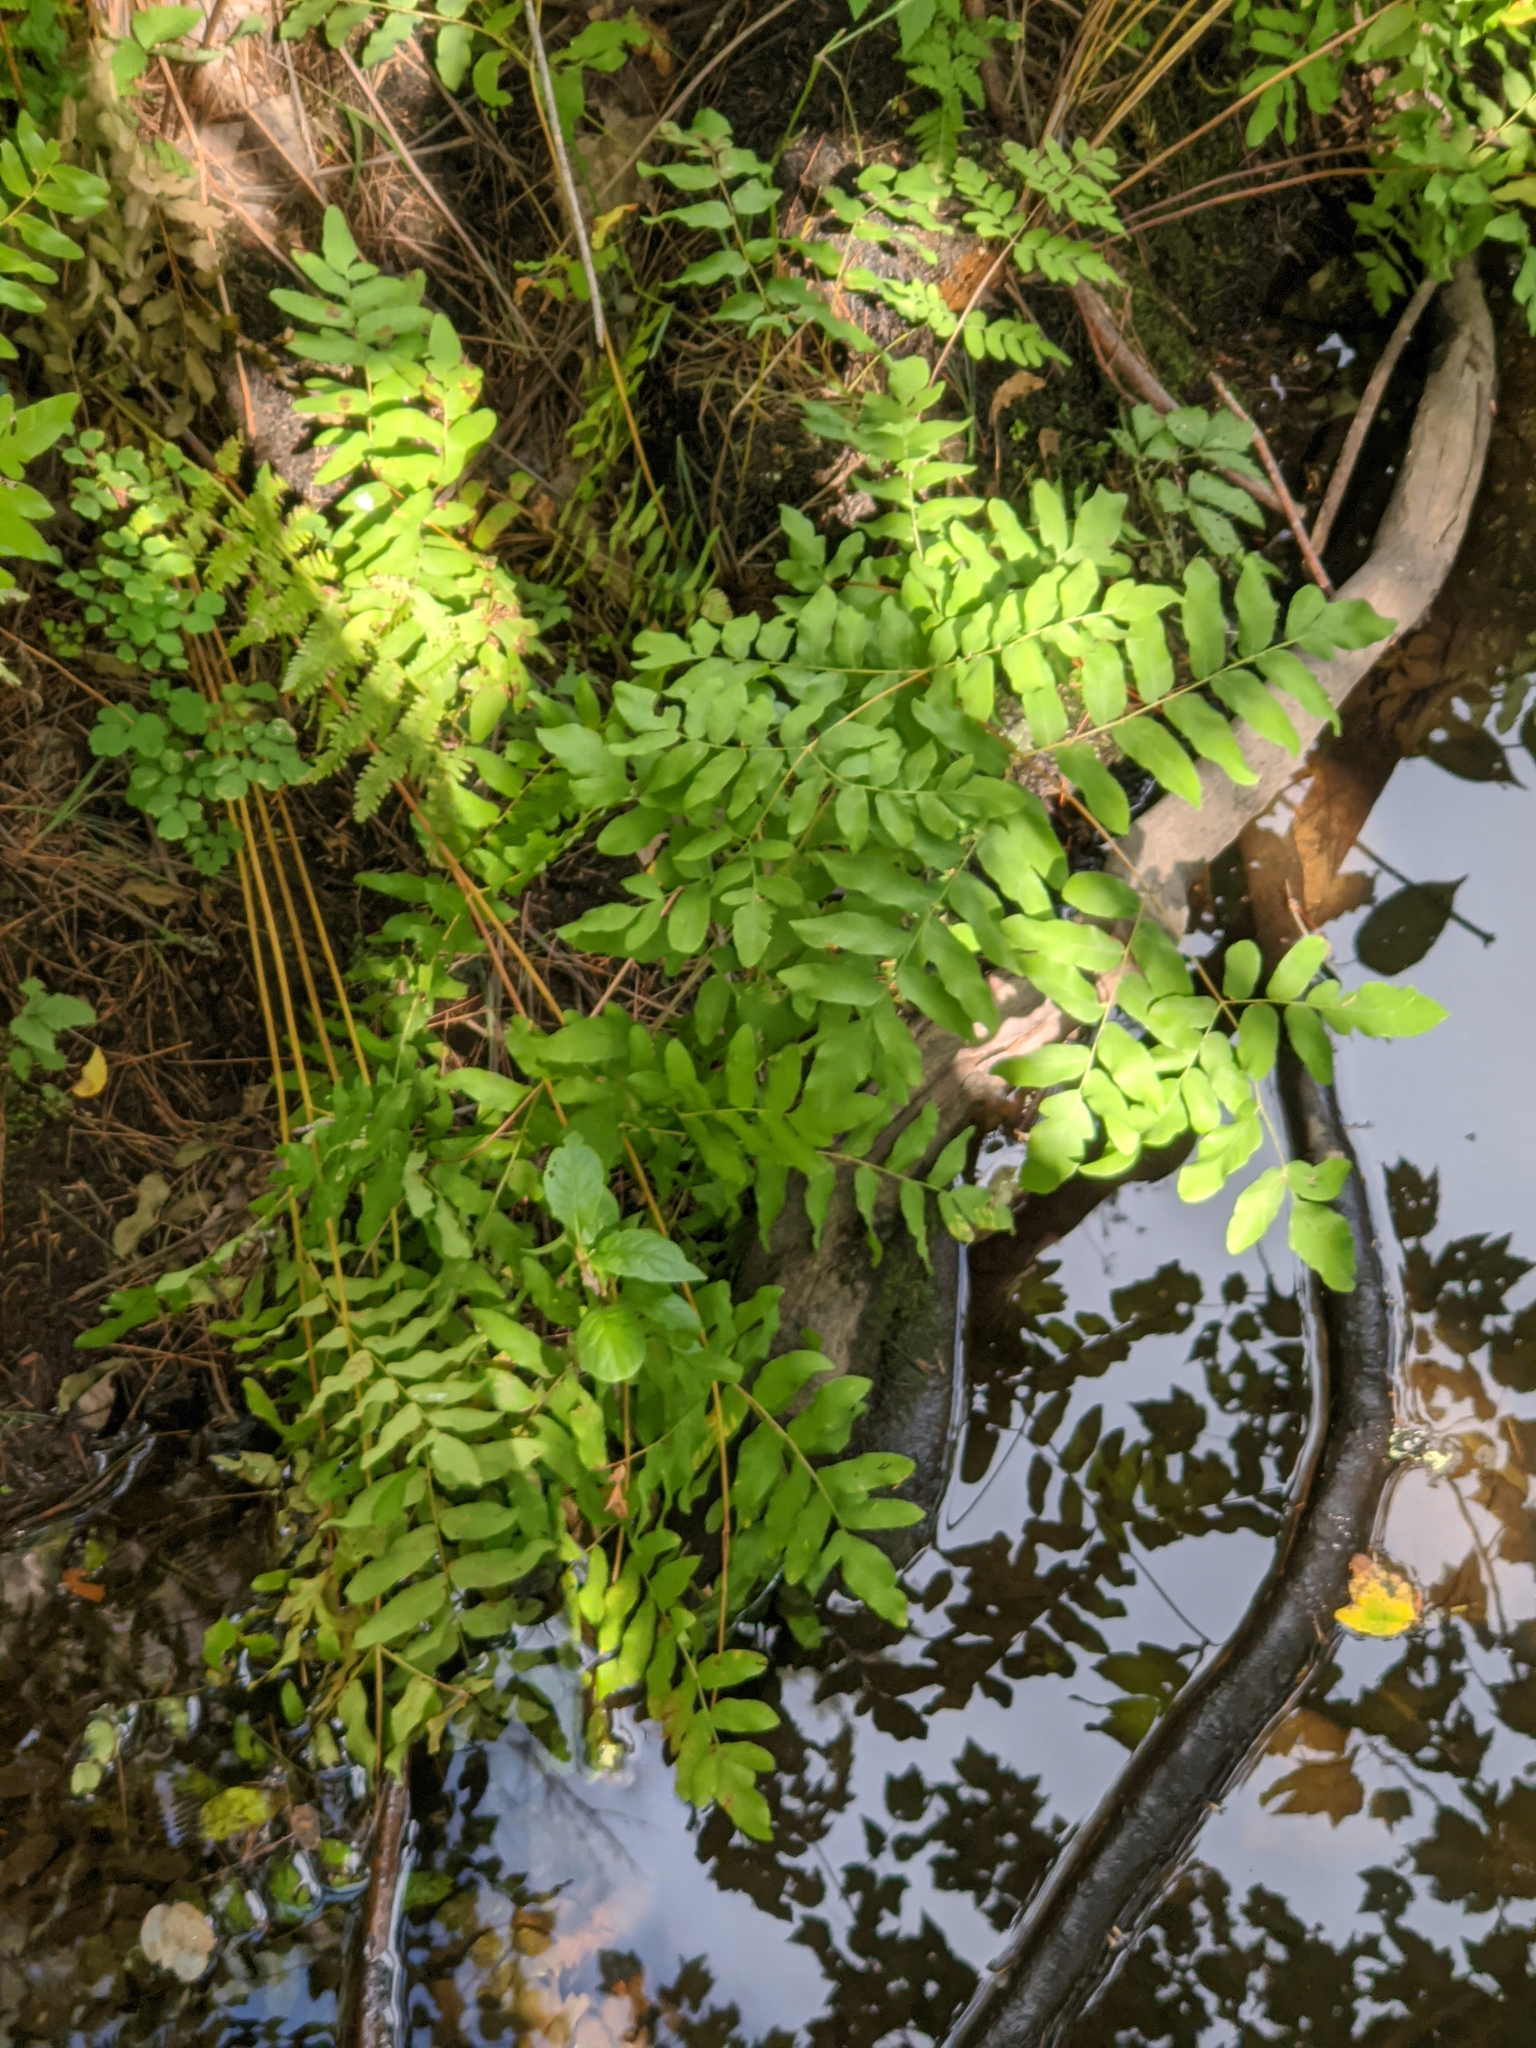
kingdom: Plantae
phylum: Tracheophyta
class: Polypodiopsida
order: Osmundales
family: Osmundaceae
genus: Osmunda
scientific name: Osmunda spectabilis
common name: American royal fern
